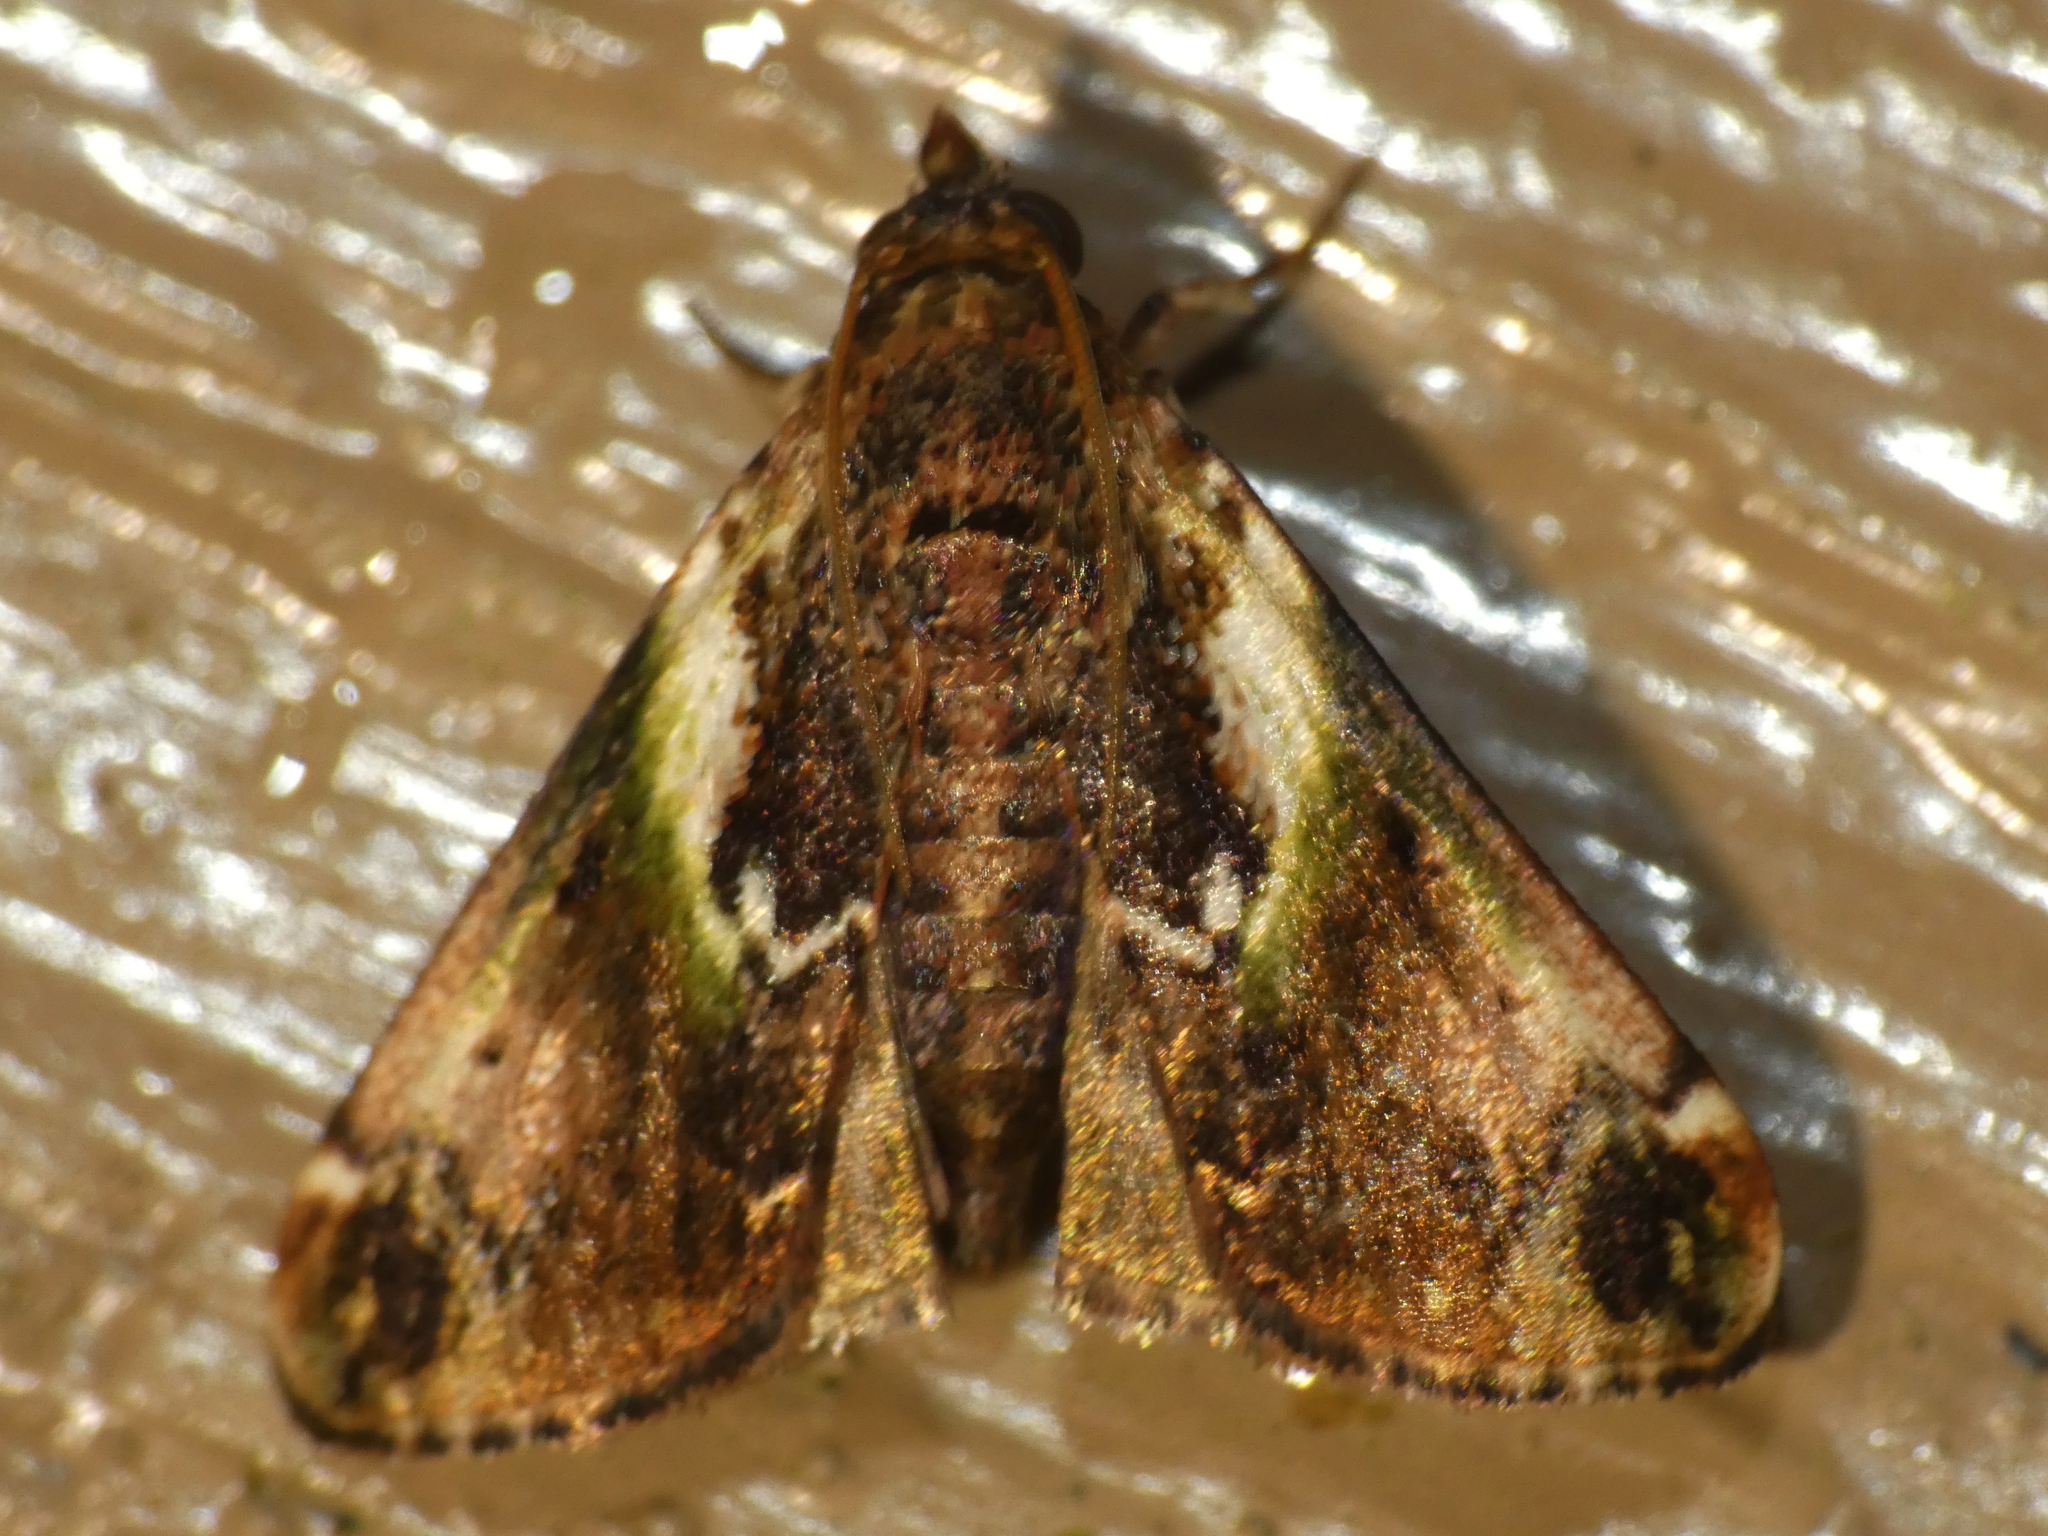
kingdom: Animalia
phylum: Arthropoda
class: Insecta
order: Lepidoptera
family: Pyralidae
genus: Doddiana
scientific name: Doddiana callizona
